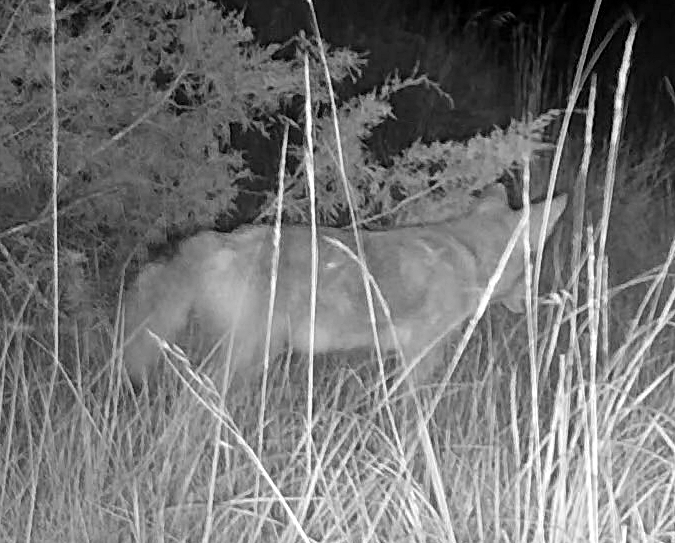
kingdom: Animalia
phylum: Chordata
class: Mammalia
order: Carnivora
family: Canidae
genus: Canis
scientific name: Canis latrans
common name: Coyote
